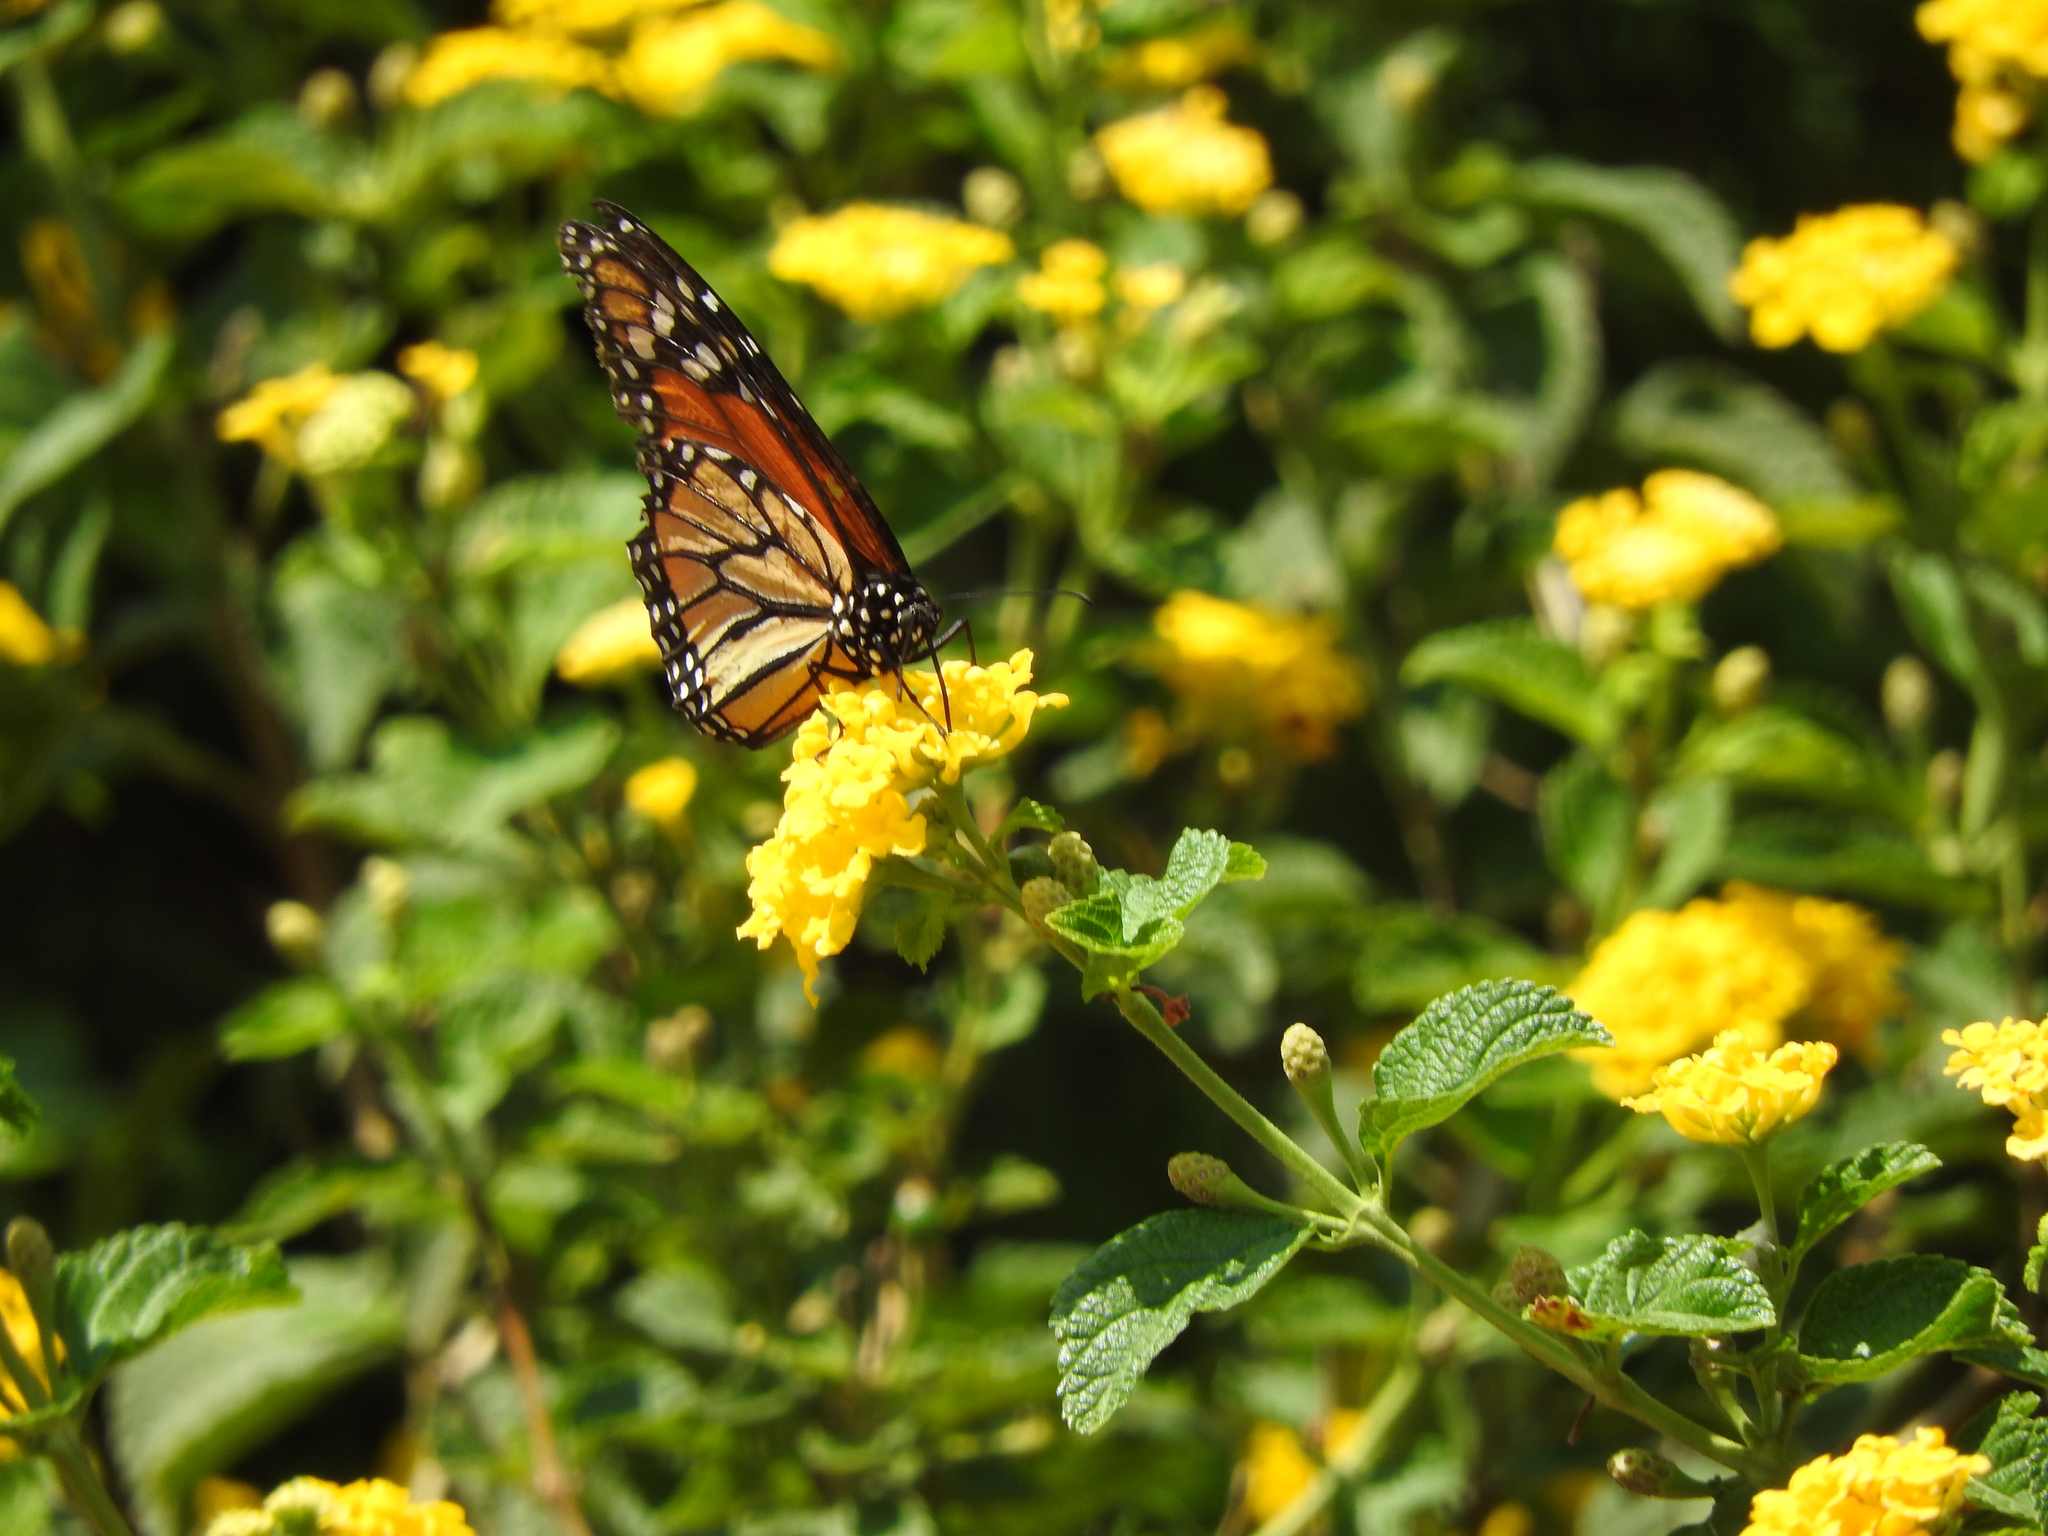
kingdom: Animalia
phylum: Arthropoda
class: Insecta
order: Lepidoptera
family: Nymphalidae
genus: Danaus
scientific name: Danaus plexippus
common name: Monarch
